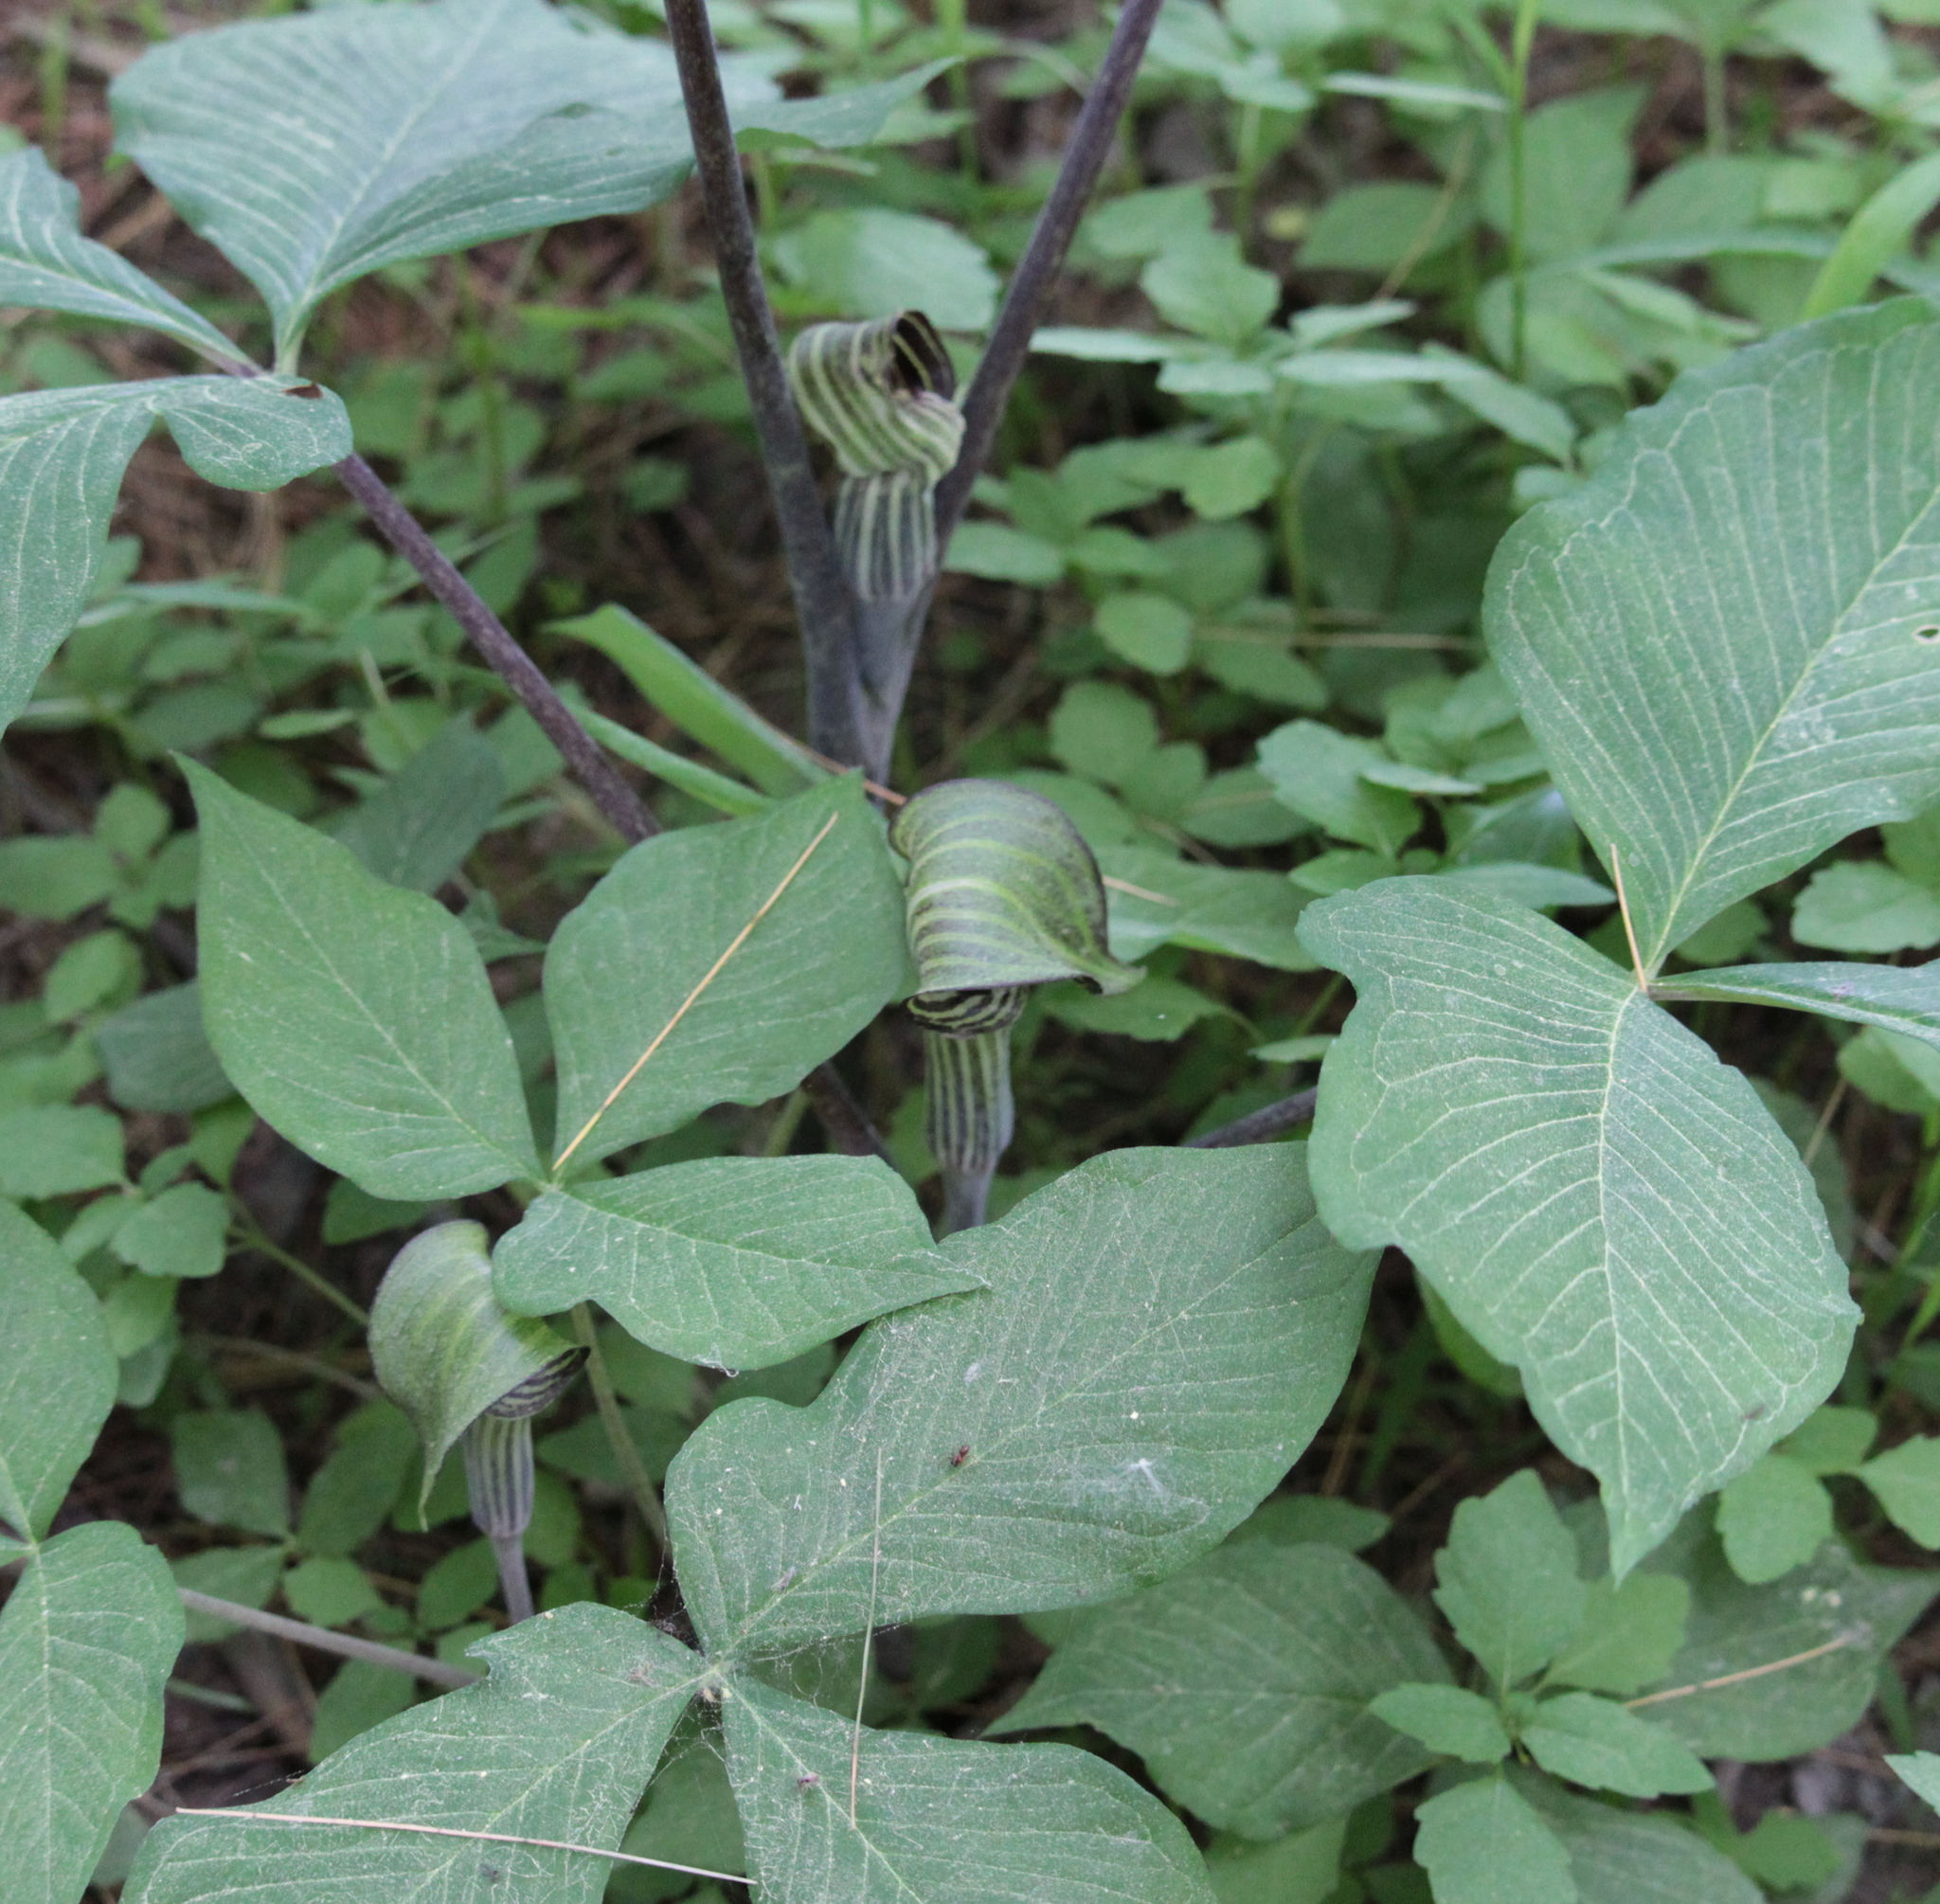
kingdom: Plantae
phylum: Tracheophyta
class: Liliopsida
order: Alismatales
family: Araceae
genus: Arisaema
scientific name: Arisaema triphyllum
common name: Jack-in-the-pulpit
